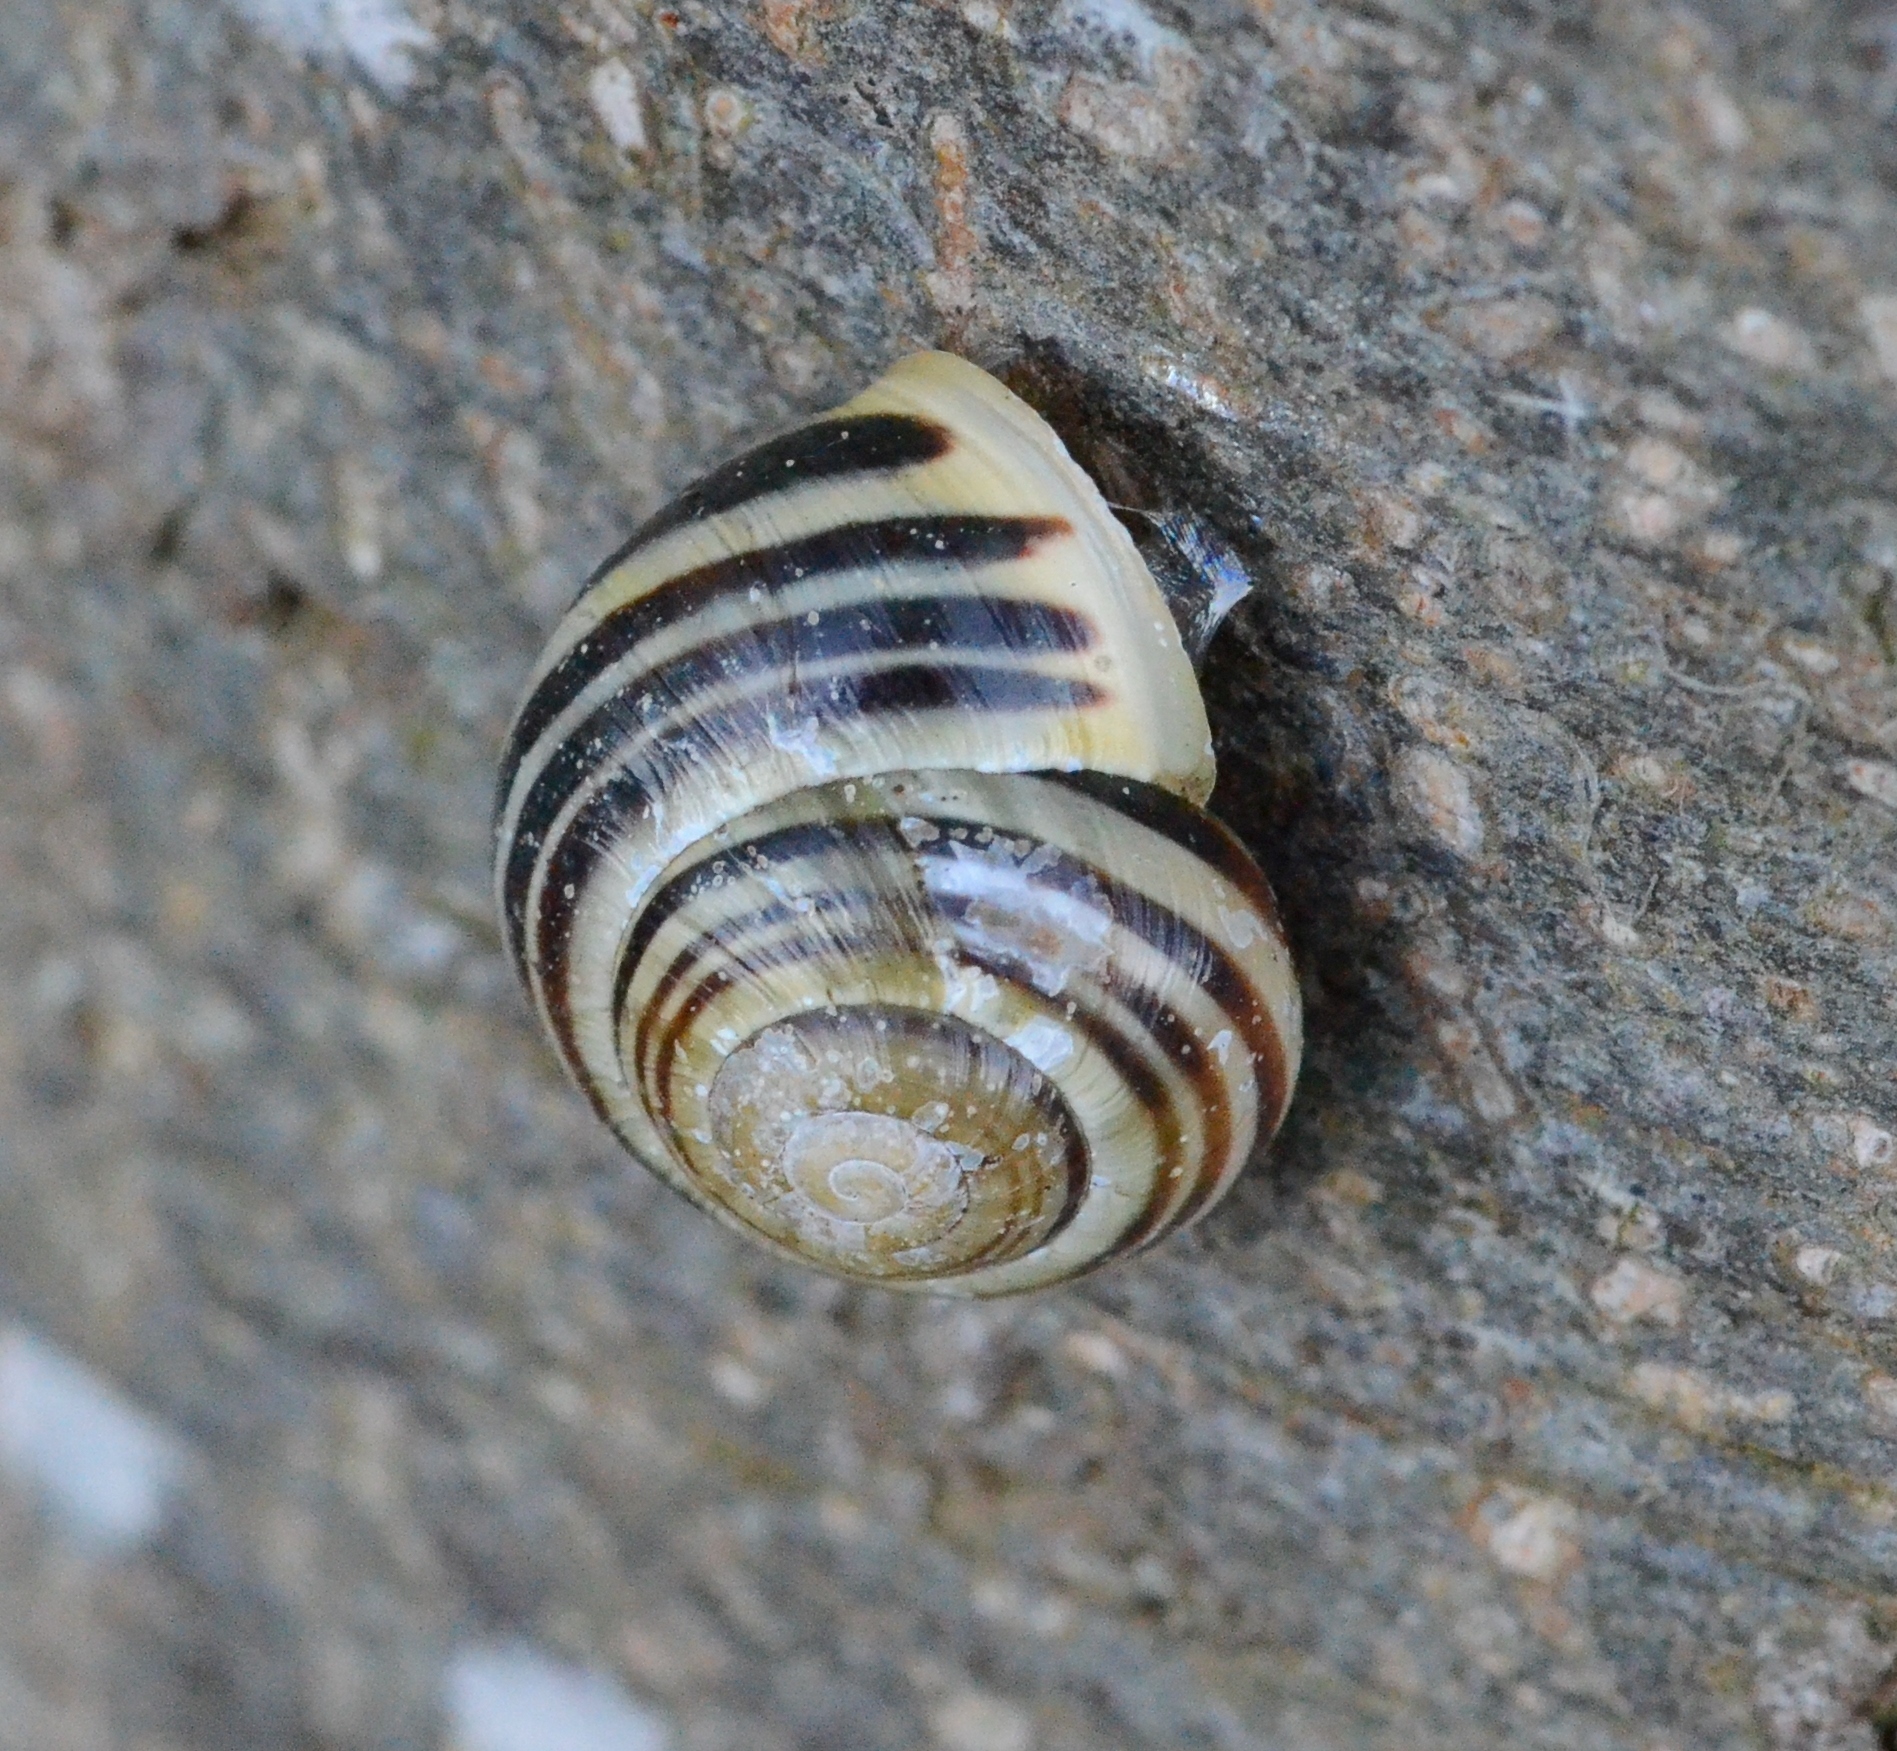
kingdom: Animalia
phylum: Mollusca
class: Gastropoda
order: Stylommatophora
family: Helicidae
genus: Cepaea
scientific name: Cepaea hortensis
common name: White-lip gardensnail
